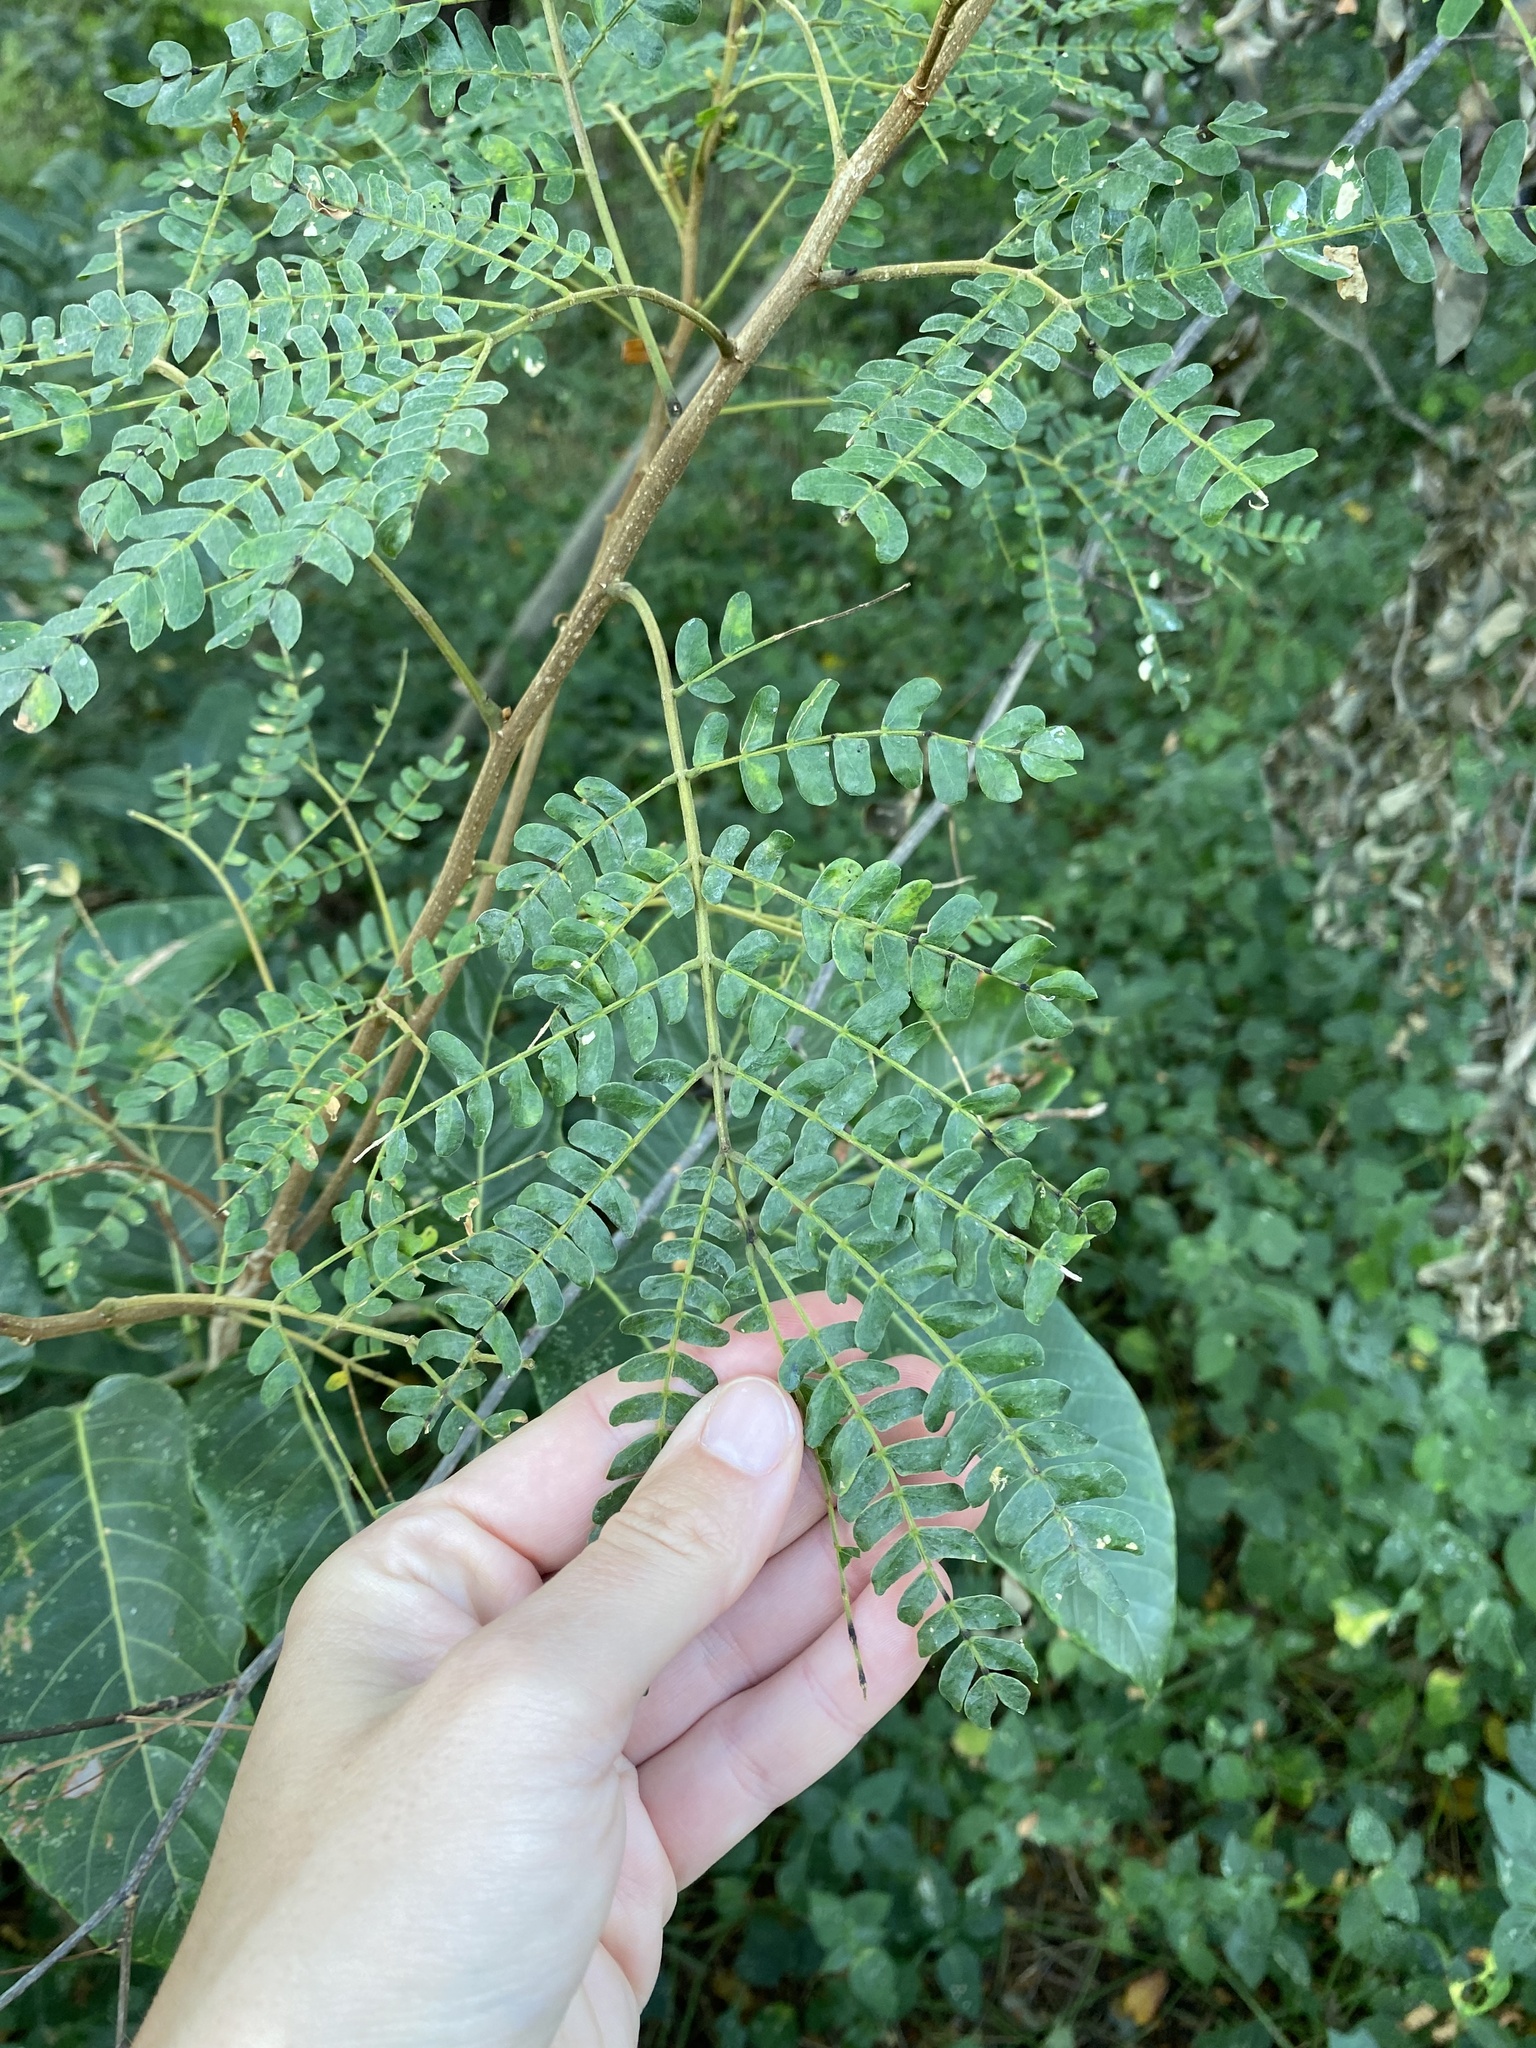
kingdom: Plantae
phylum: Tracheophyta
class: Magnoliopsida
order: Fabales
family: Fabaceae
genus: Albizia
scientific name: Albizia adianthifolia
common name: West african albizia
